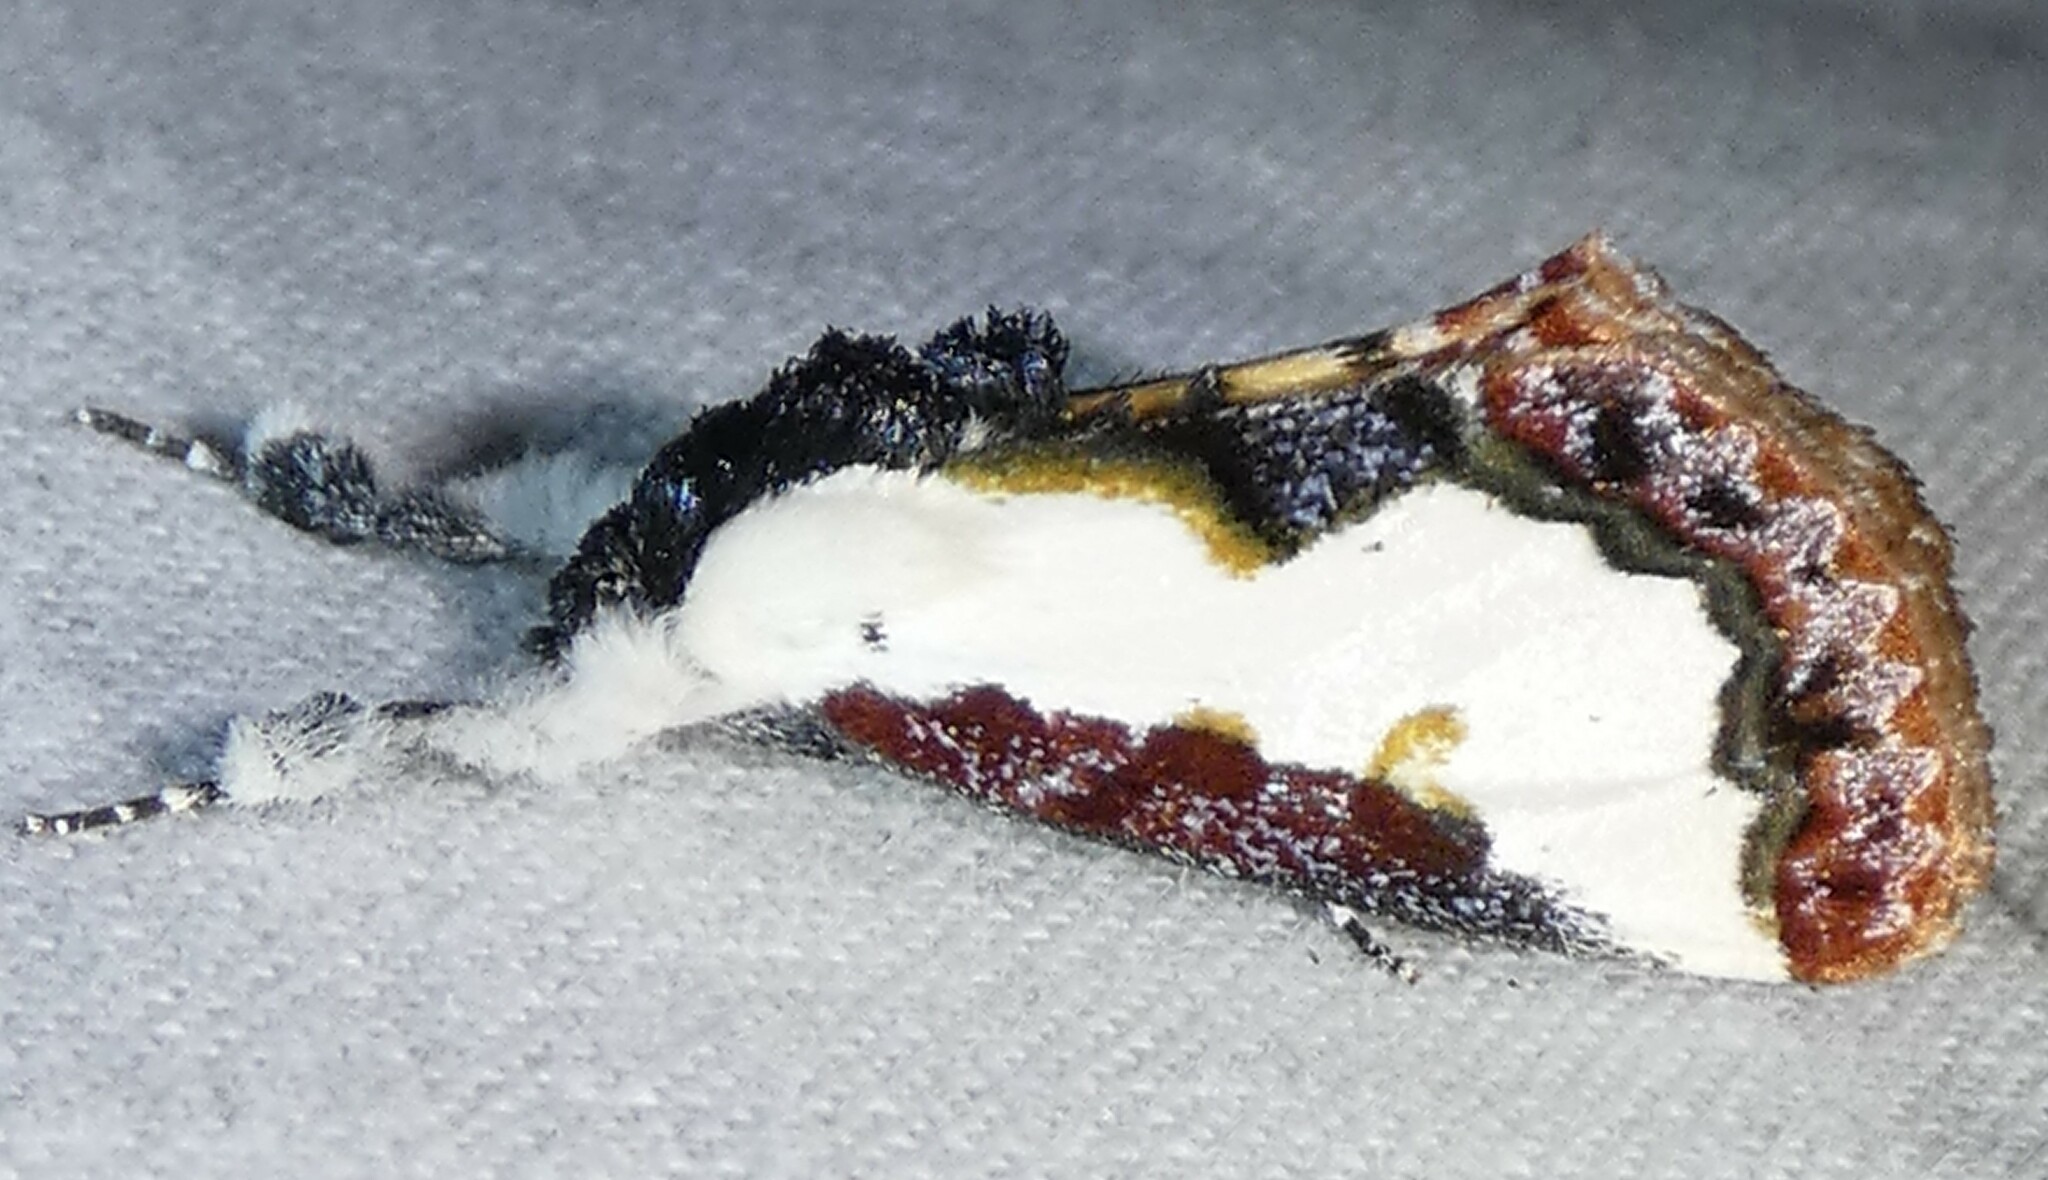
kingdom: Animalia
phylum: Arthropoda
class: Insecta
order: Lepidoptera
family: Noctuidae
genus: Eudryas
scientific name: Eudryas unio
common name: Pearly wood-nymph
